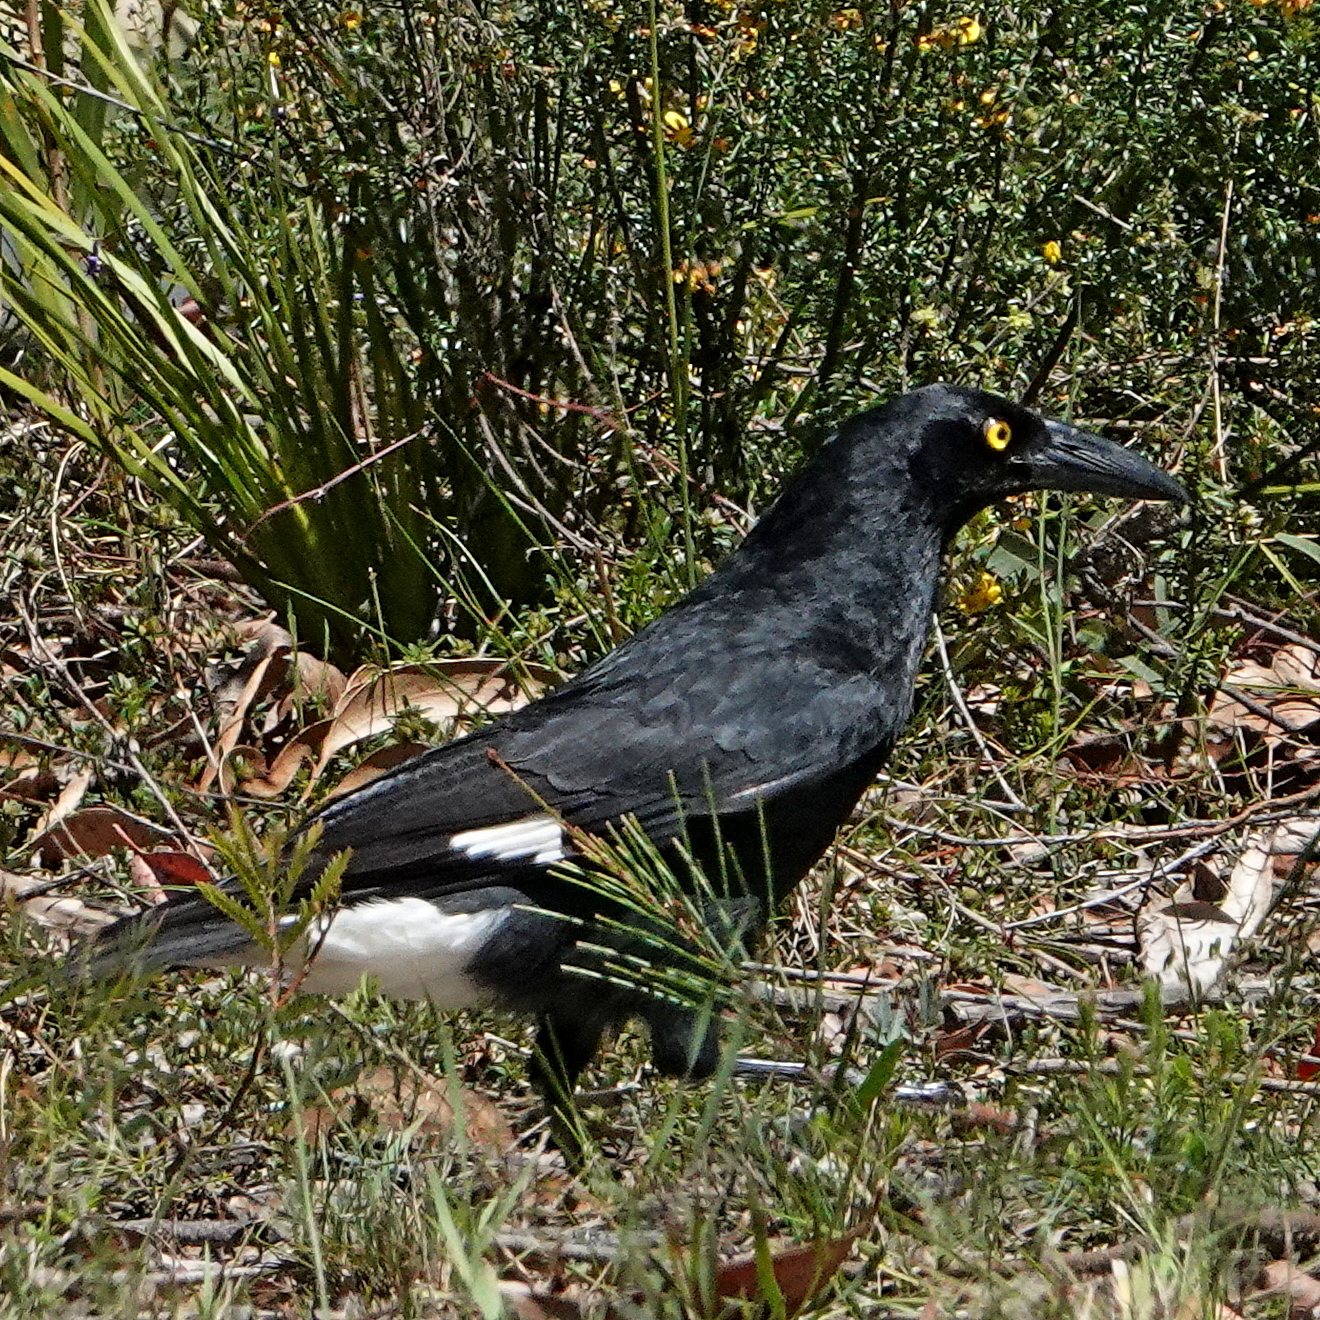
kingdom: Animalia
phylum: Chordata
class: Aves
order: Passeriformes
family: Cracticidae
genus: Strepera
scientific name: Strepera graculina
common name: Pied currawong
